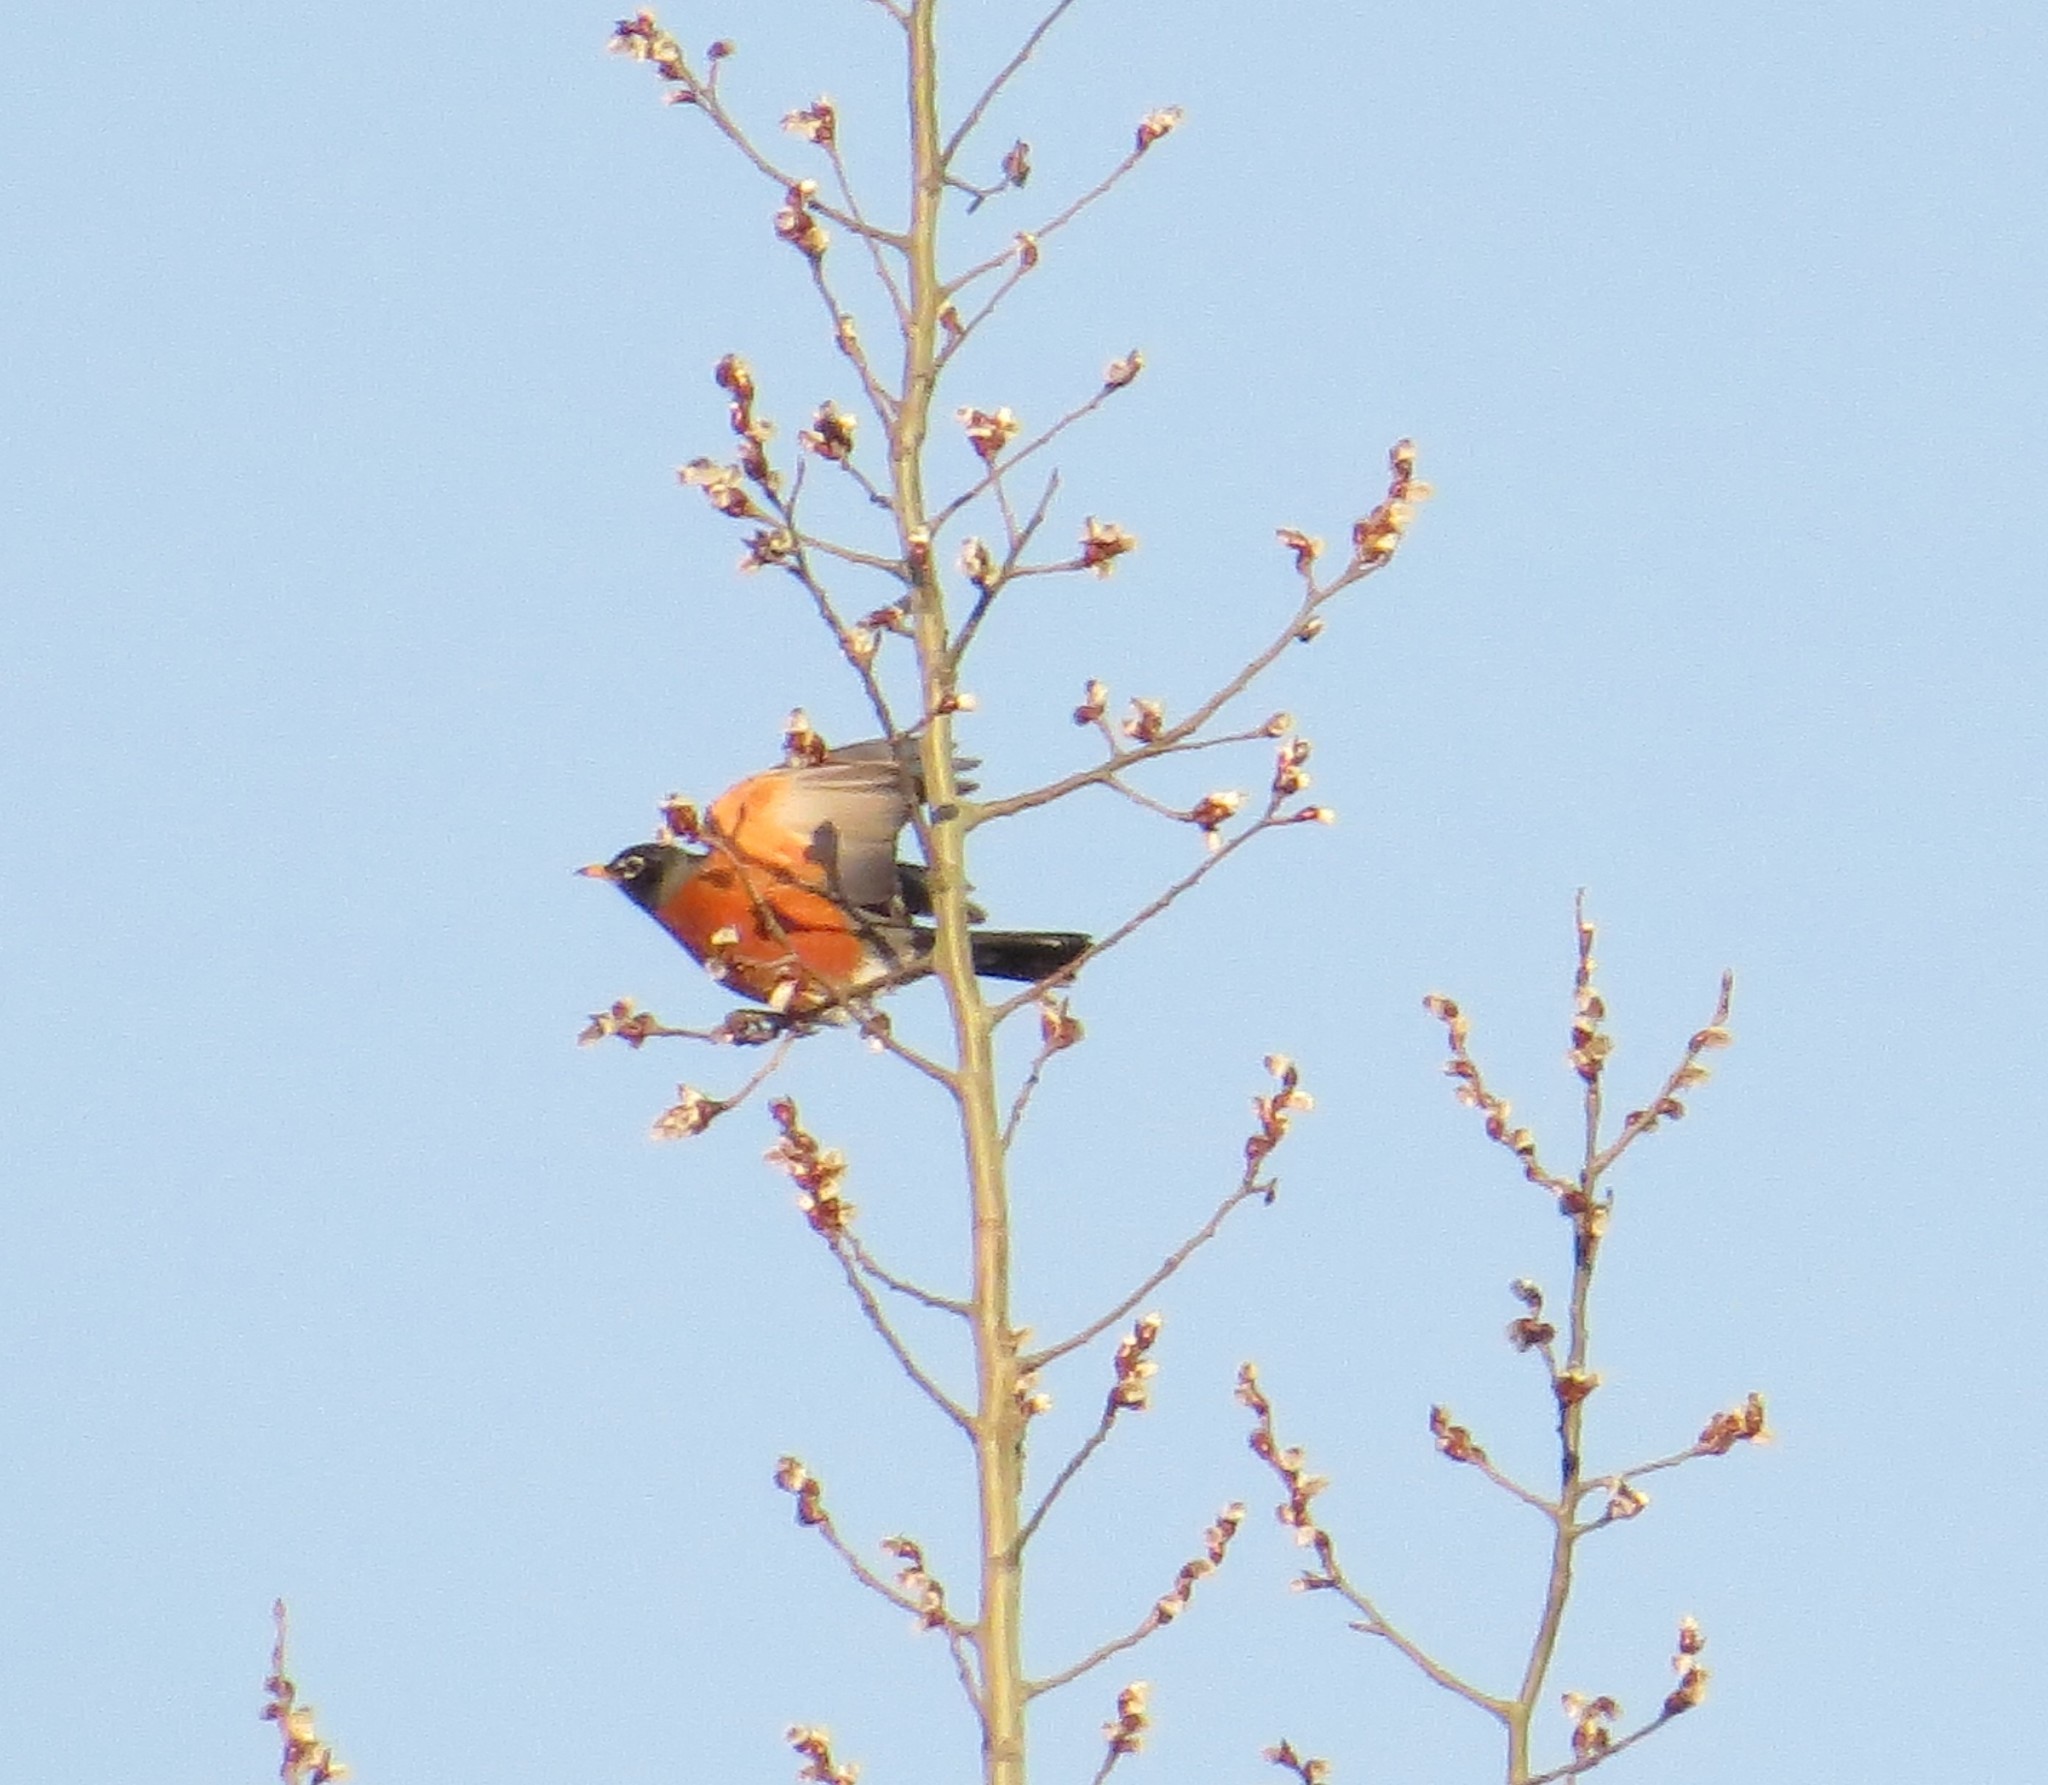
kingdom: Animalia
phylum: Chordata
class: Aves
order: Passeriformes
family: Turdidae
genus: Turdus
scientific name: Turdus migratorius
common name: American robin
